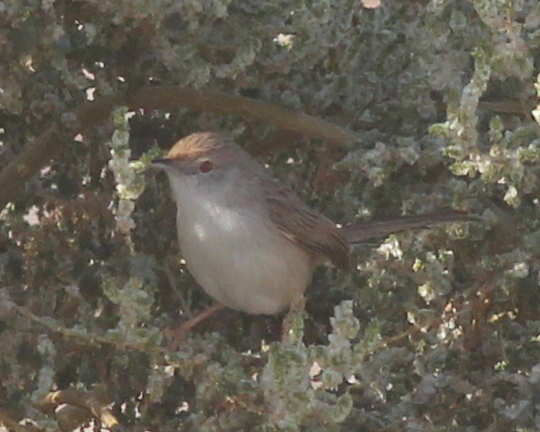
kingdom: Animalia
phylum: Chordata
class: Aves
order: Passeriformes
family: Cisticolidae
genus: Prinia
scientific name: Prinia gracilis
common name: Graceful prinia
